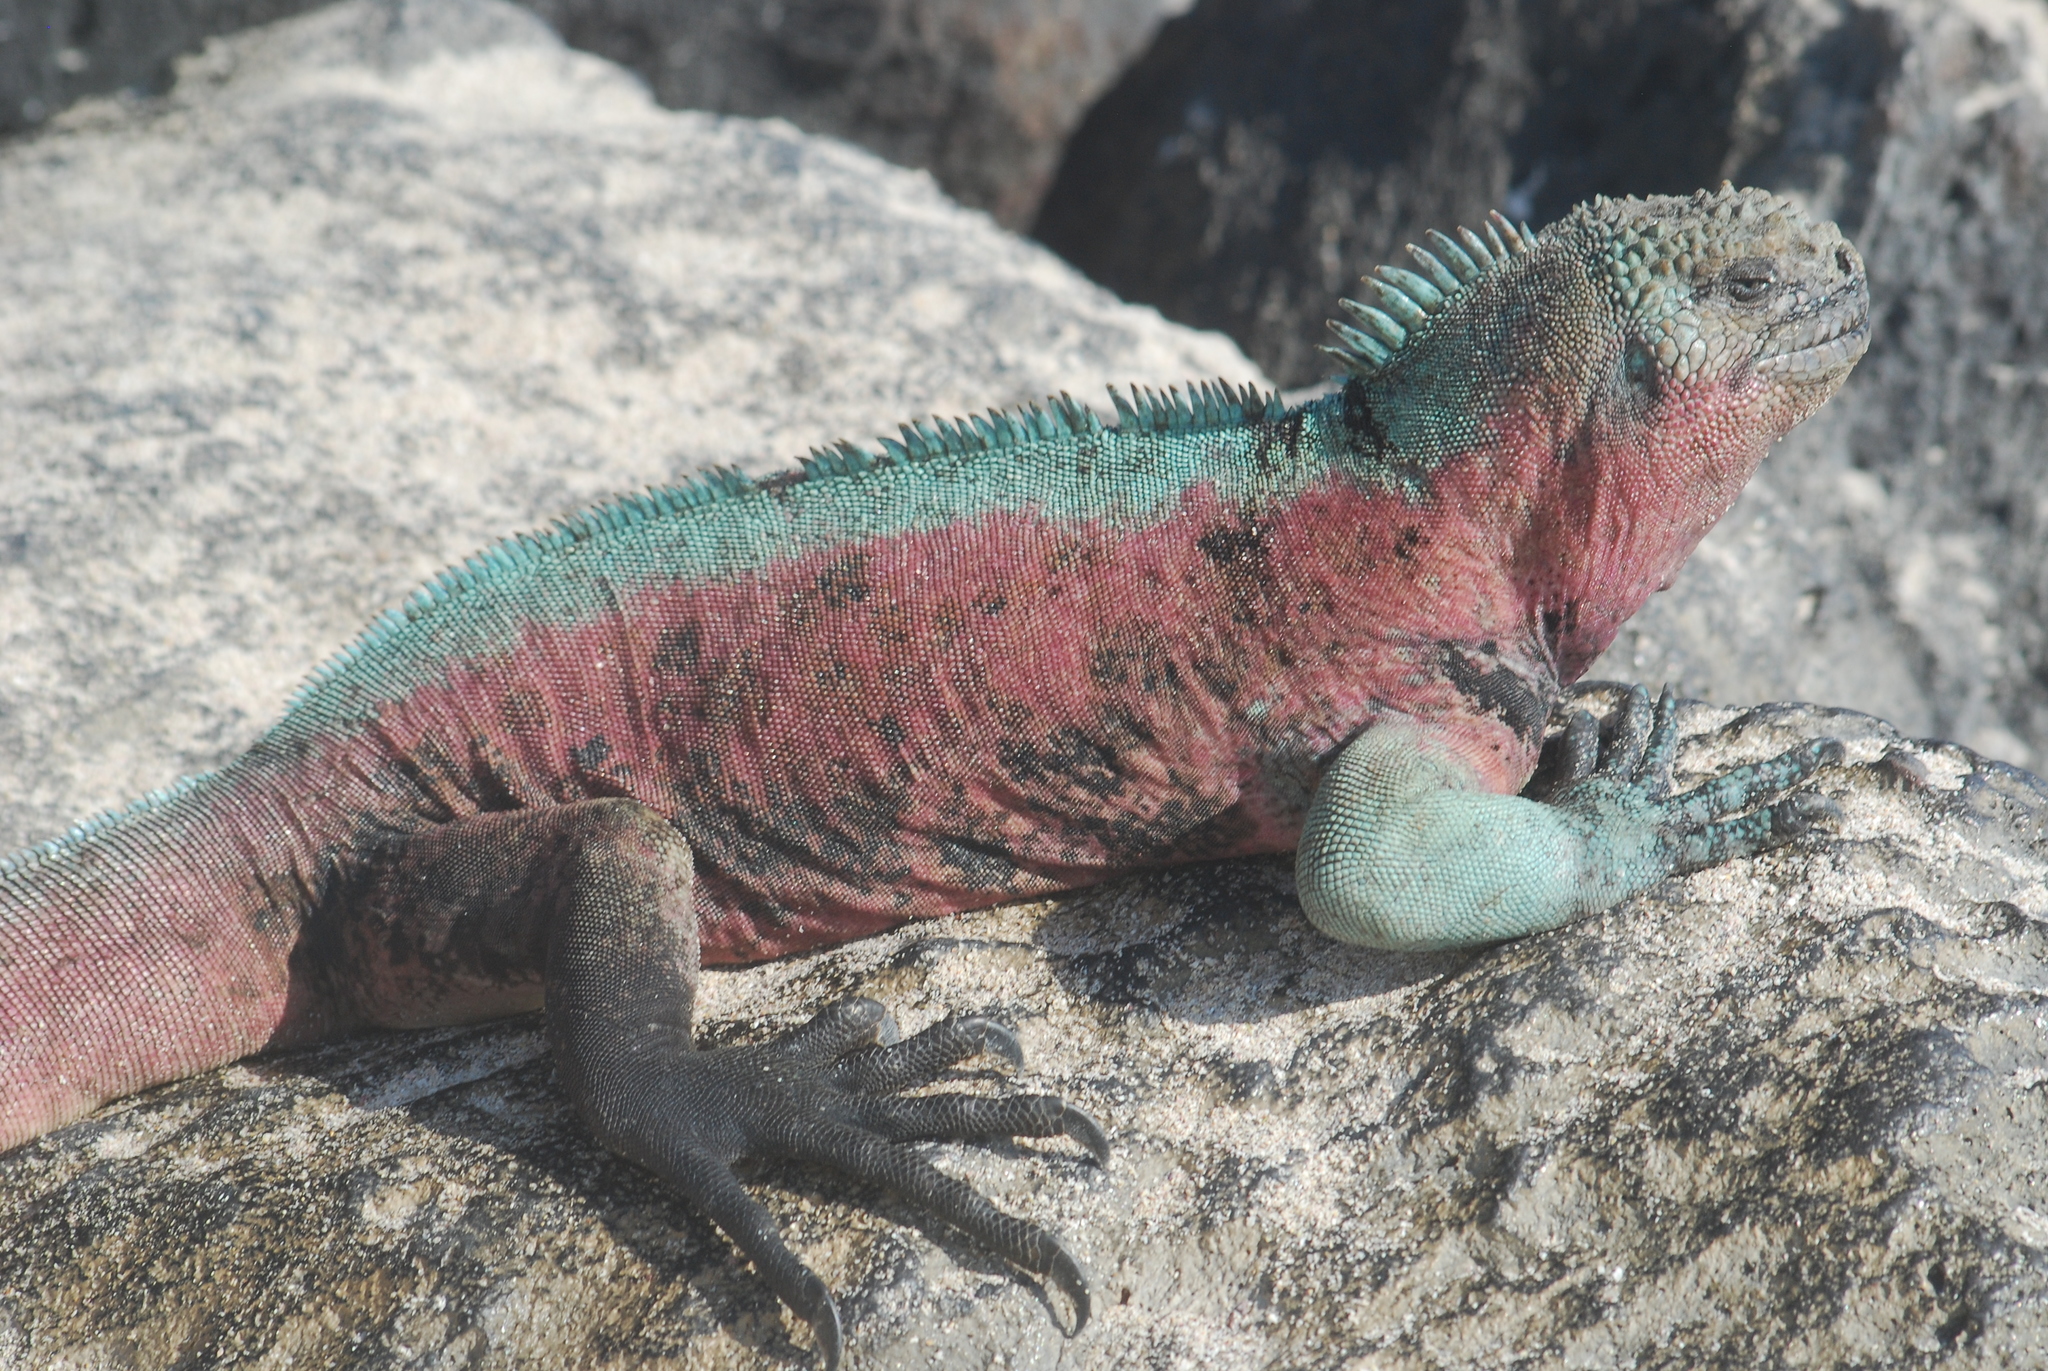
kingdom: Animalia
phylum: Chordata
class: Squamata
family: Iguanidae
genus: Amblyrhynchus
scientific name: Amblyrhynchus cristatus
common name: Marine iguana
